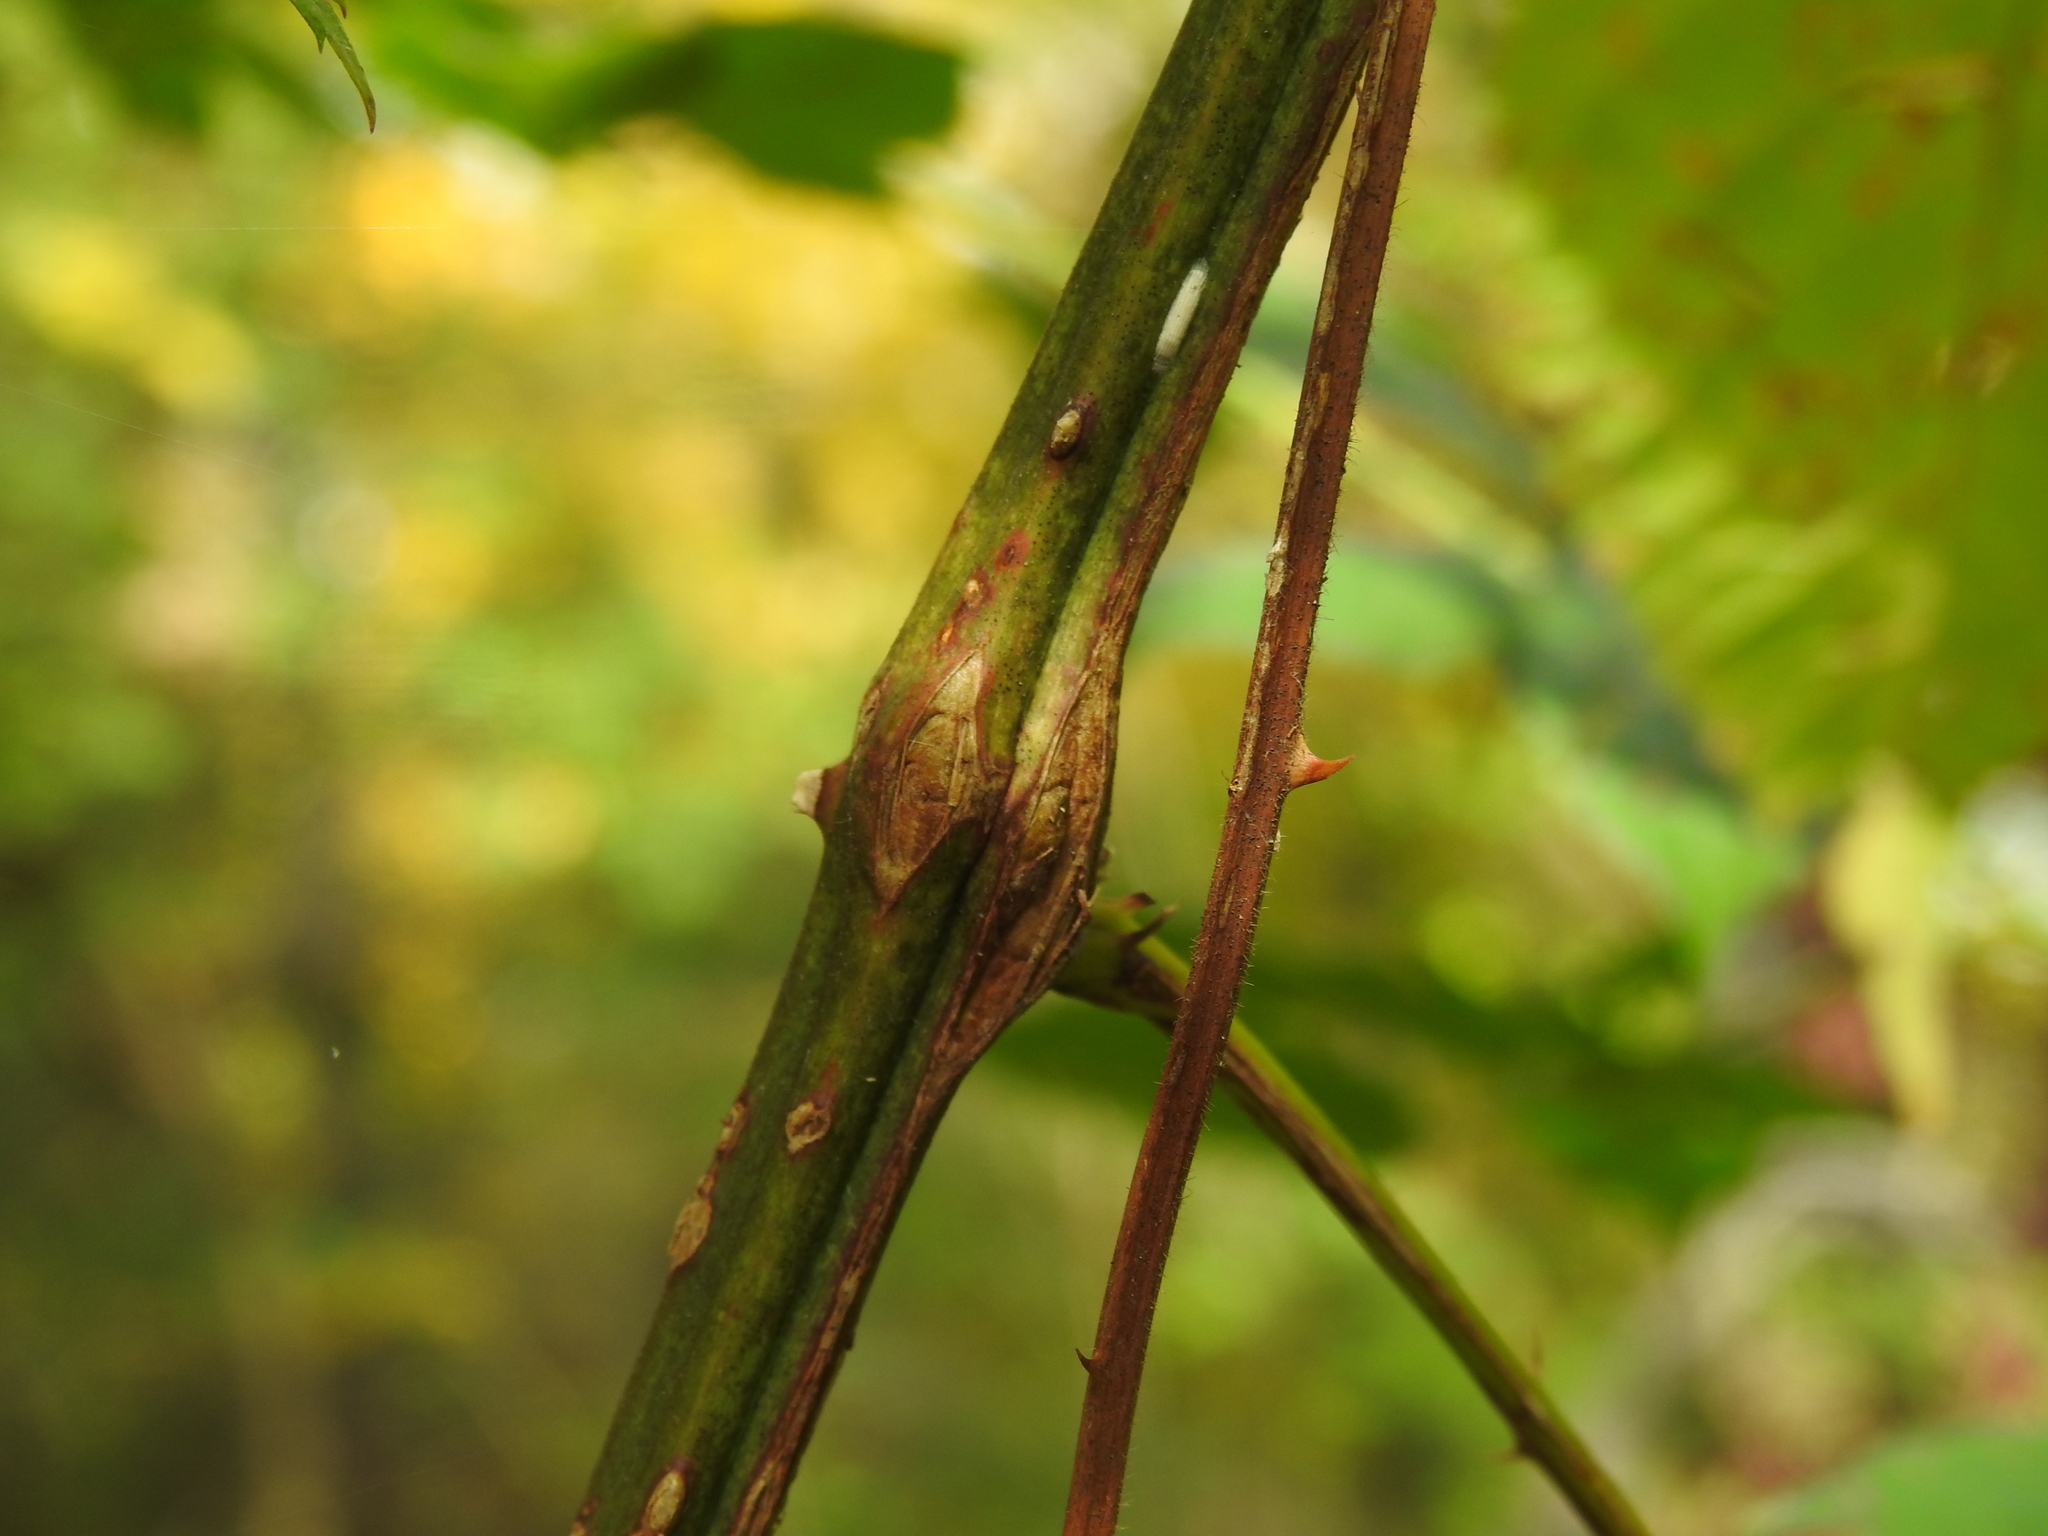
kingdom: Animalia
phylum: Arthropoda
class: Insecta
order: Diptera
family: Cecidomyiidae
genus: Neolasioptera
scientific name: Neolasioptera nodulosa
